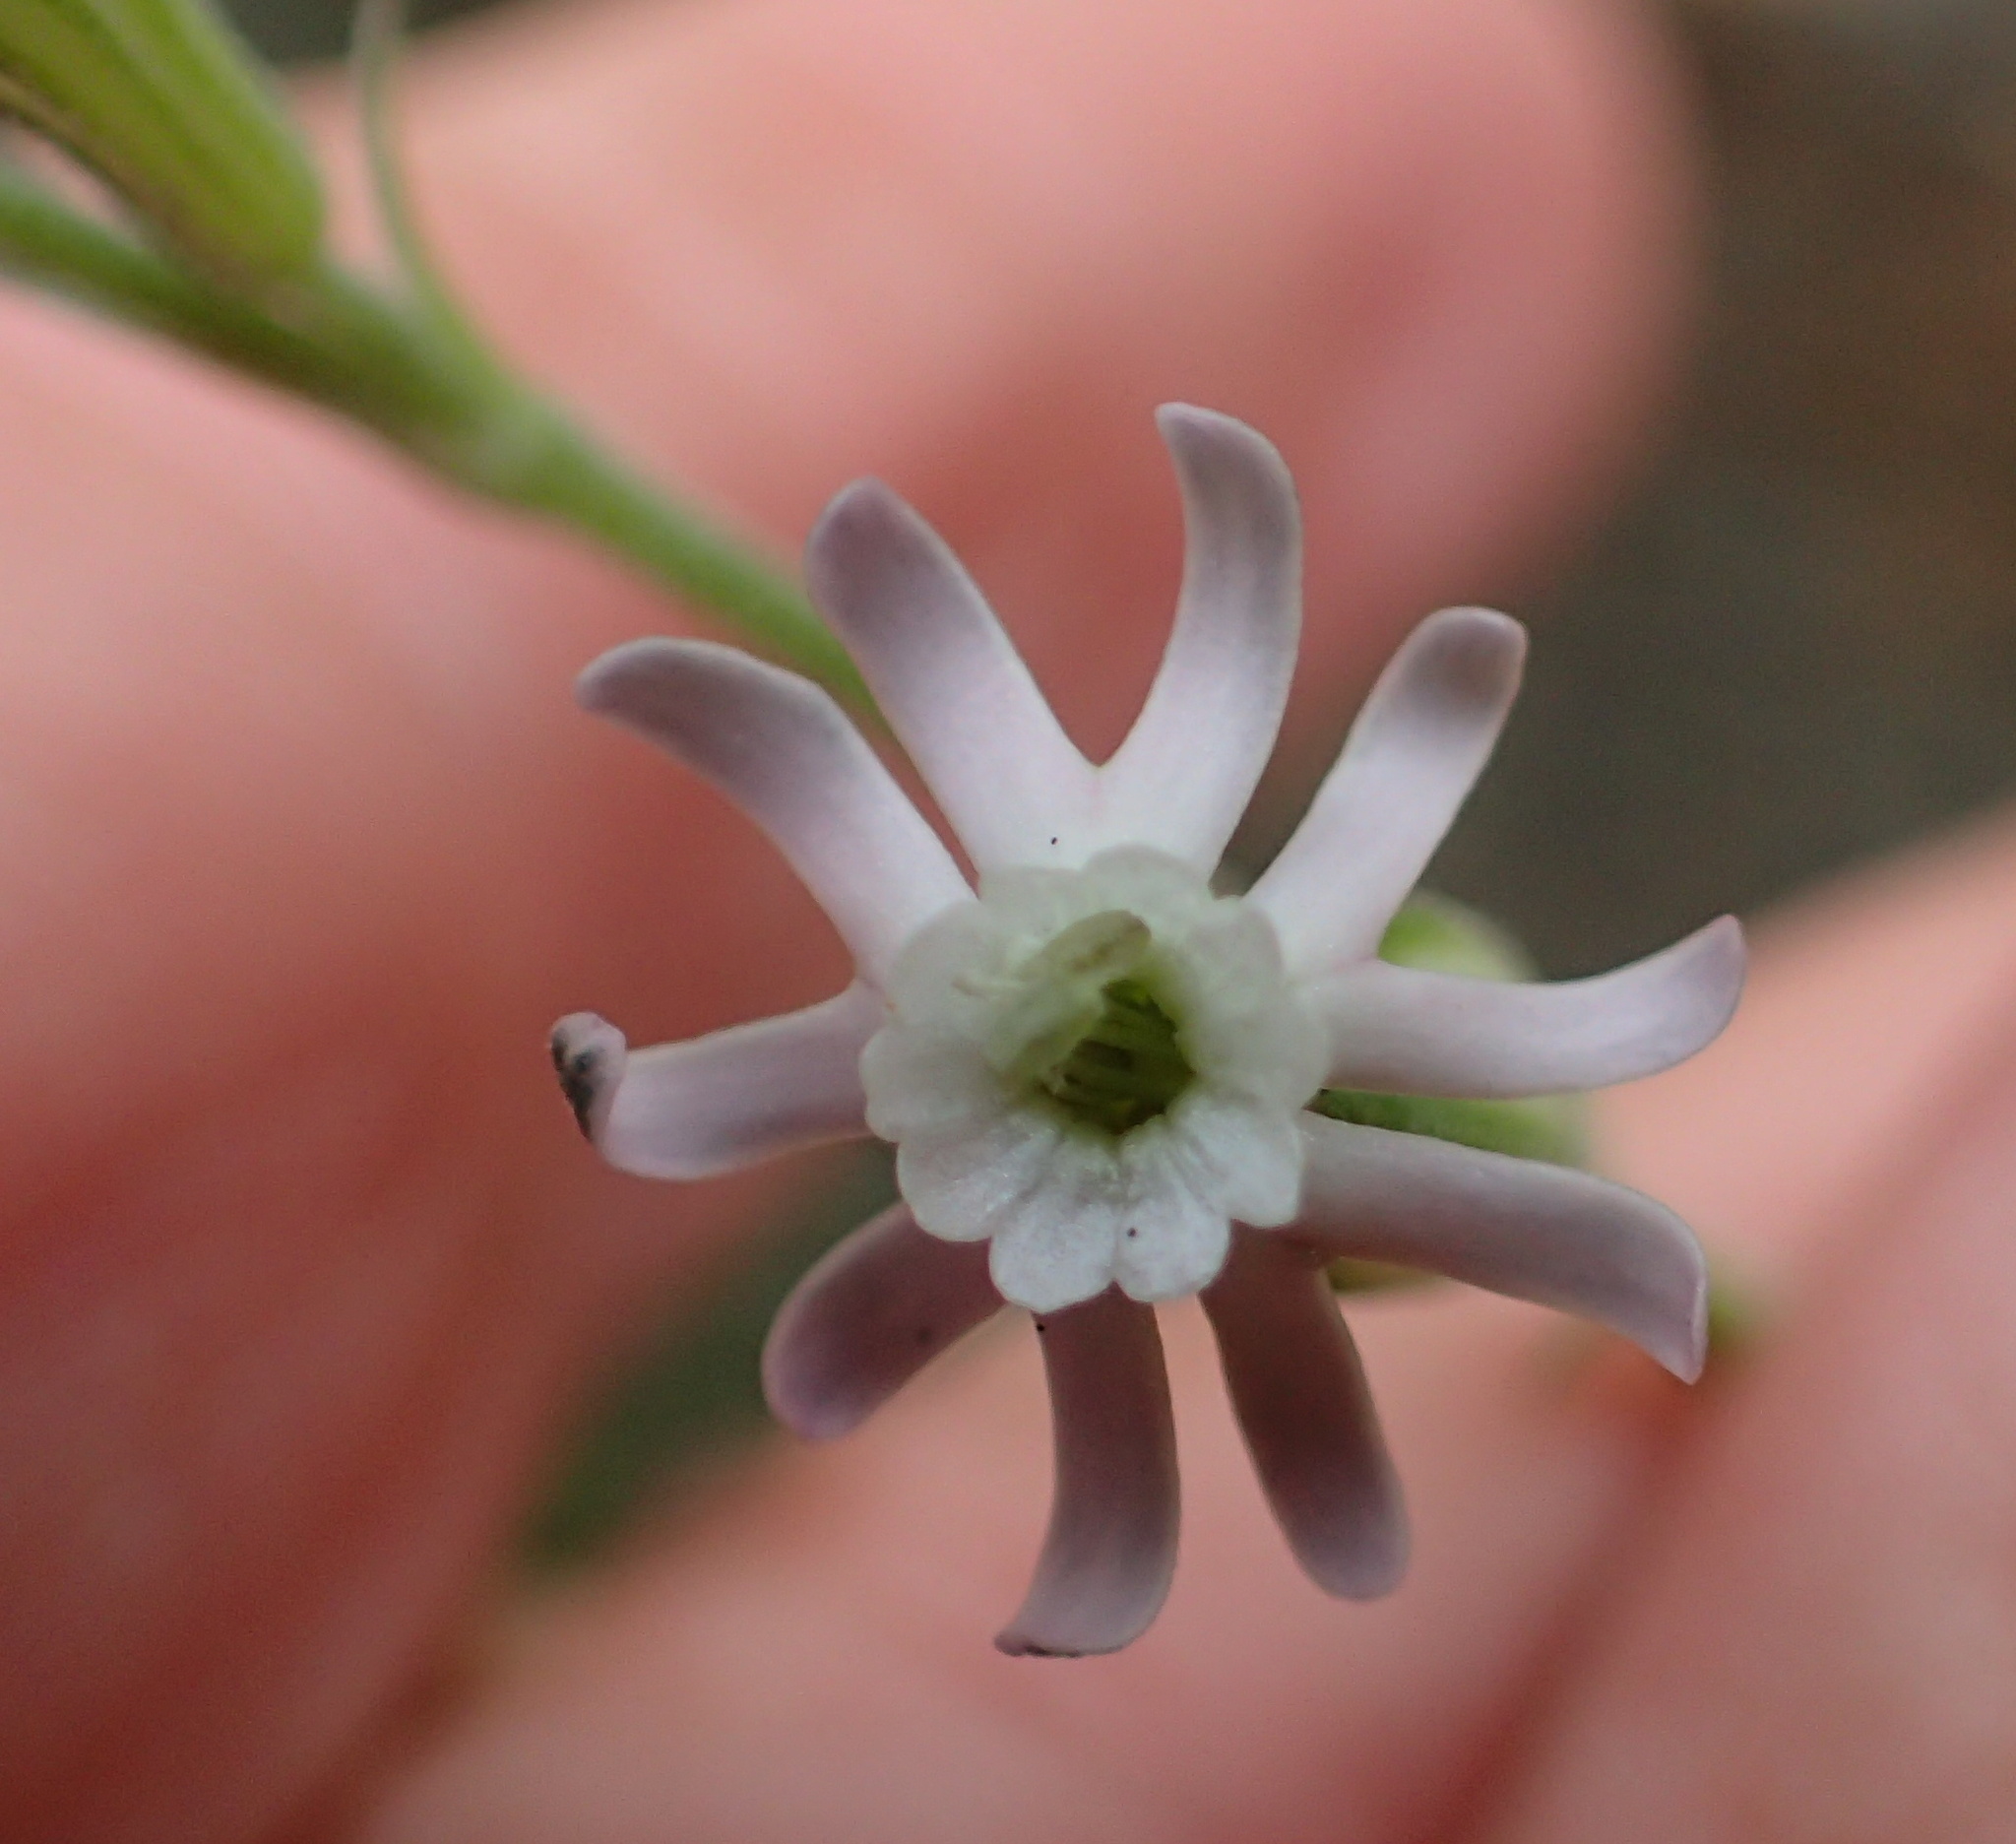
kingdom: Plantae
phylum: Tracheophyta
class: Magnoliopsida
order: Caryophyllales
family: Caryophyllaceae
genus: Silene
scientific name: Silene burchellii
